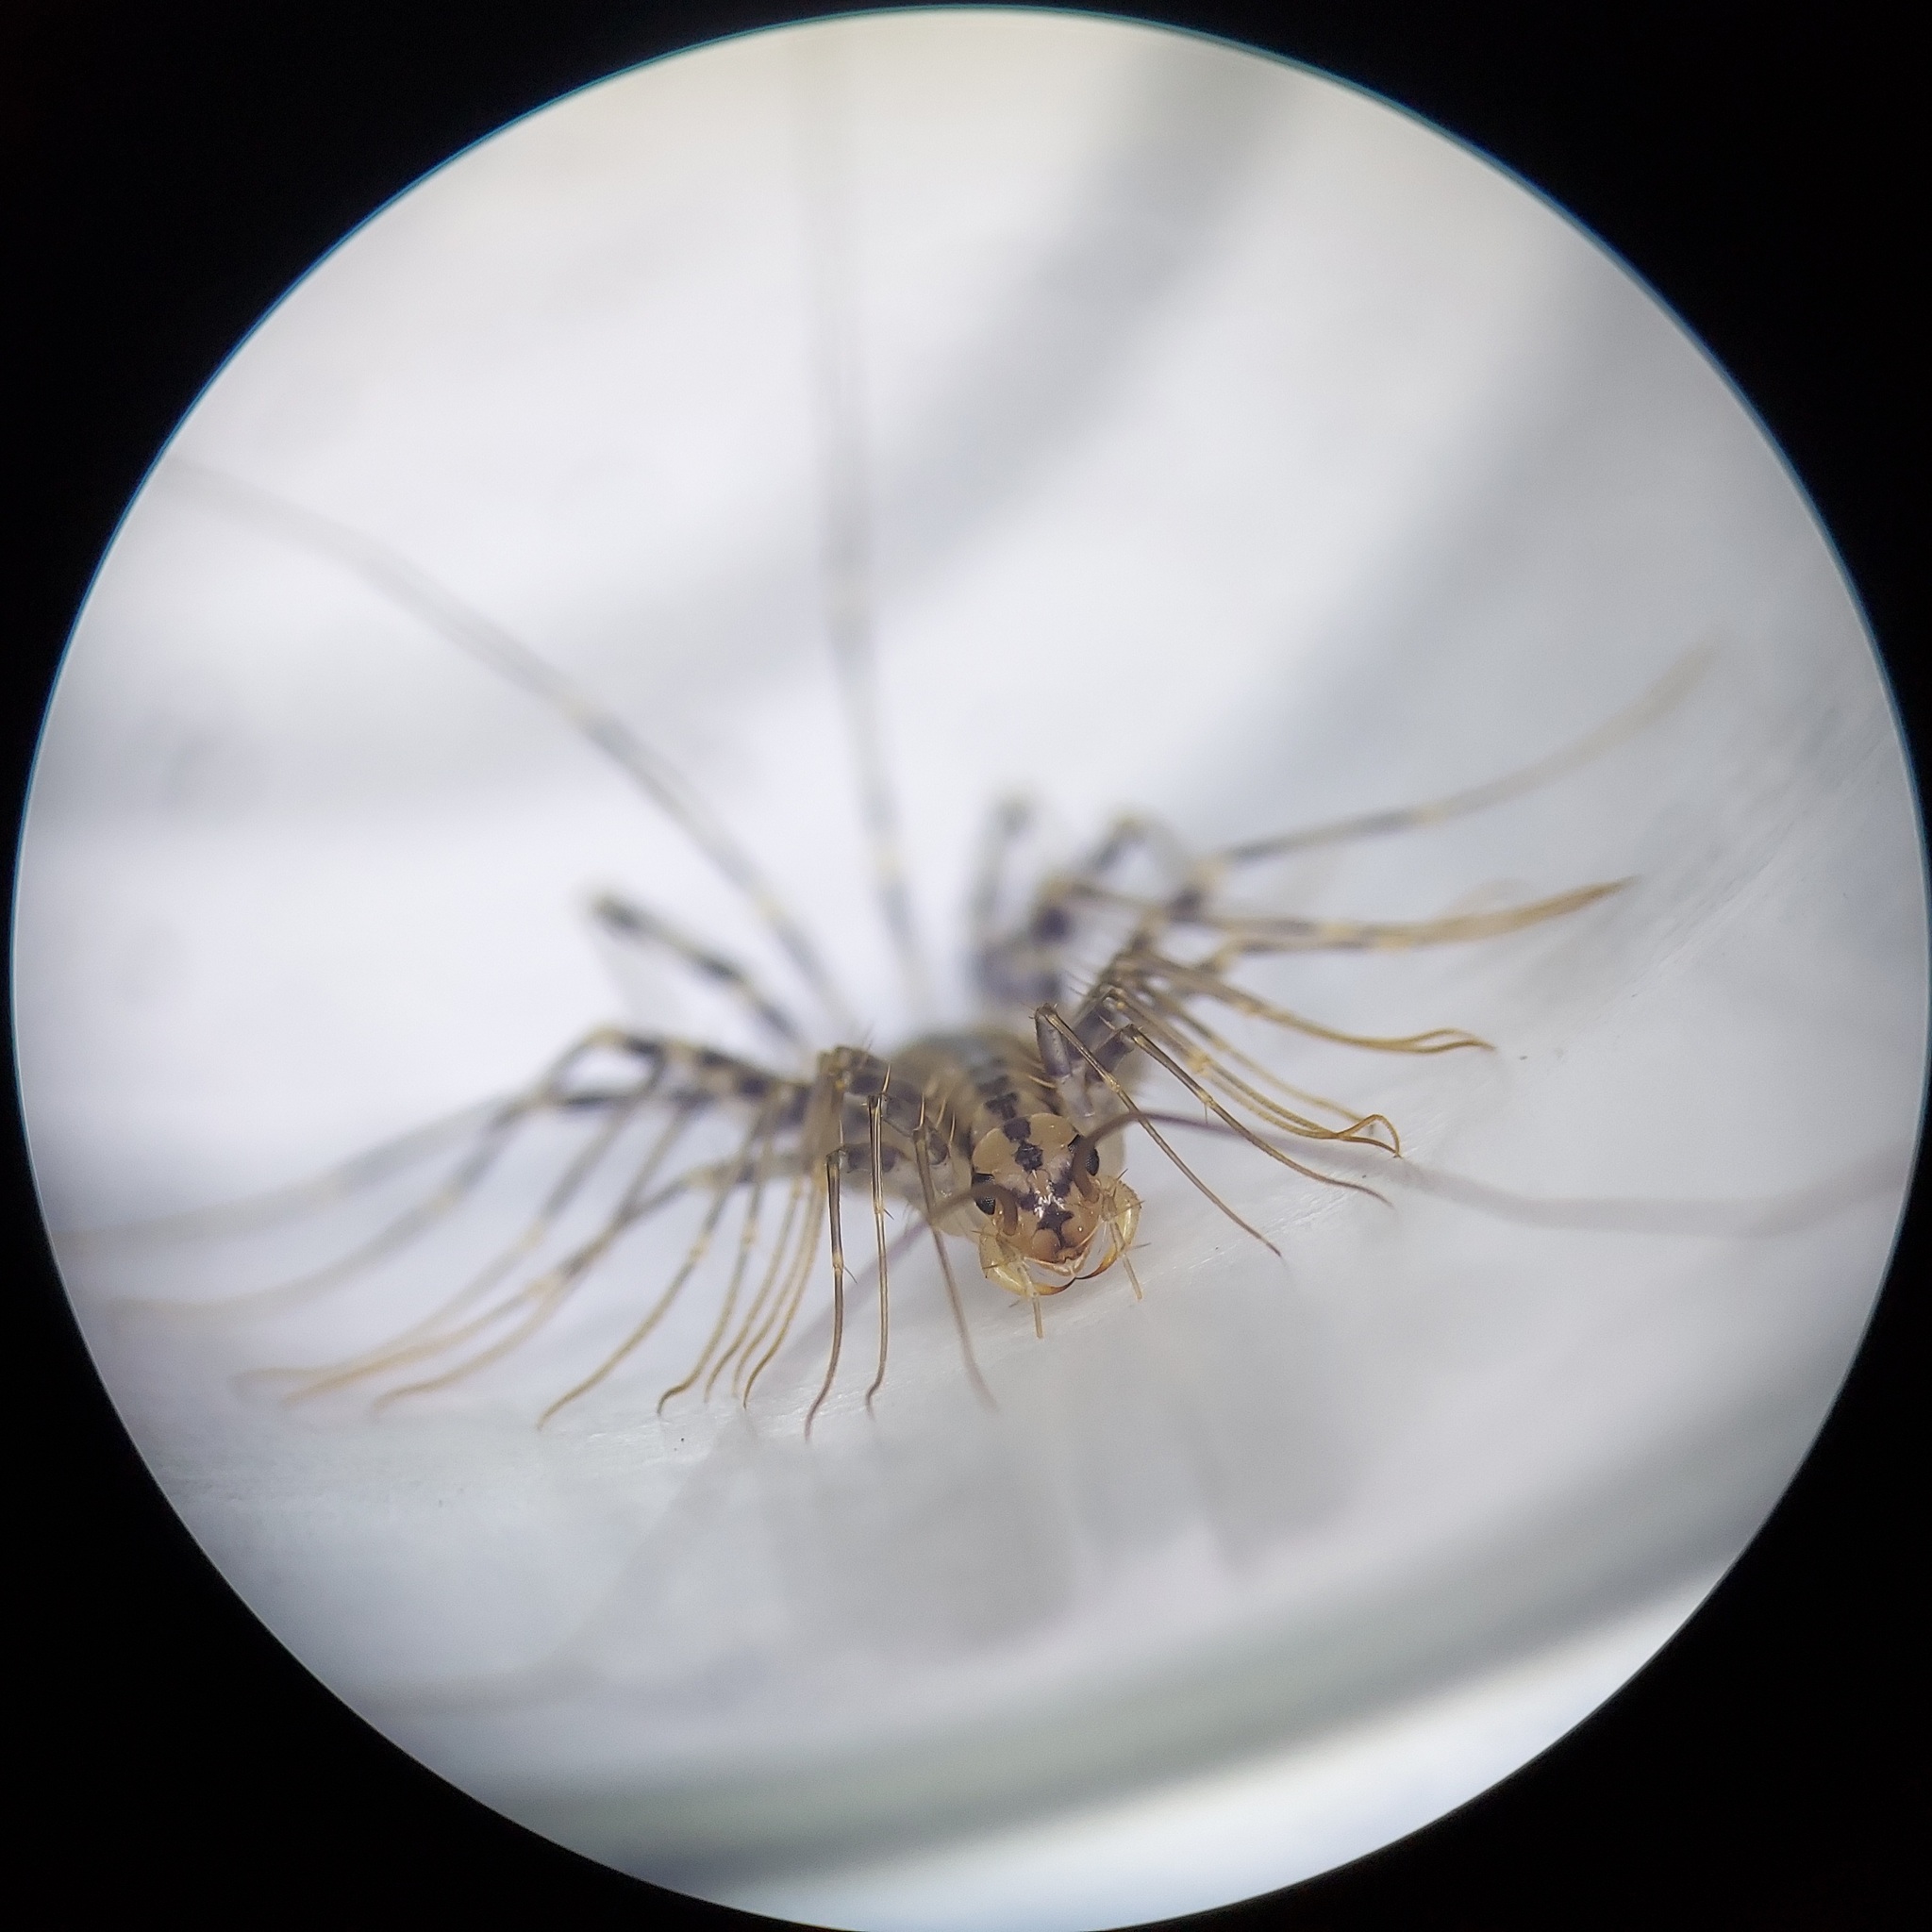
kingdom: Animalia
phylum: Arthropoda
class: Chilopoda
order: Scutigeromorpha
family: Scutigeridae
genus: Scutigera
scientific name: Scutigera coleoptrata
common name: House centipede
